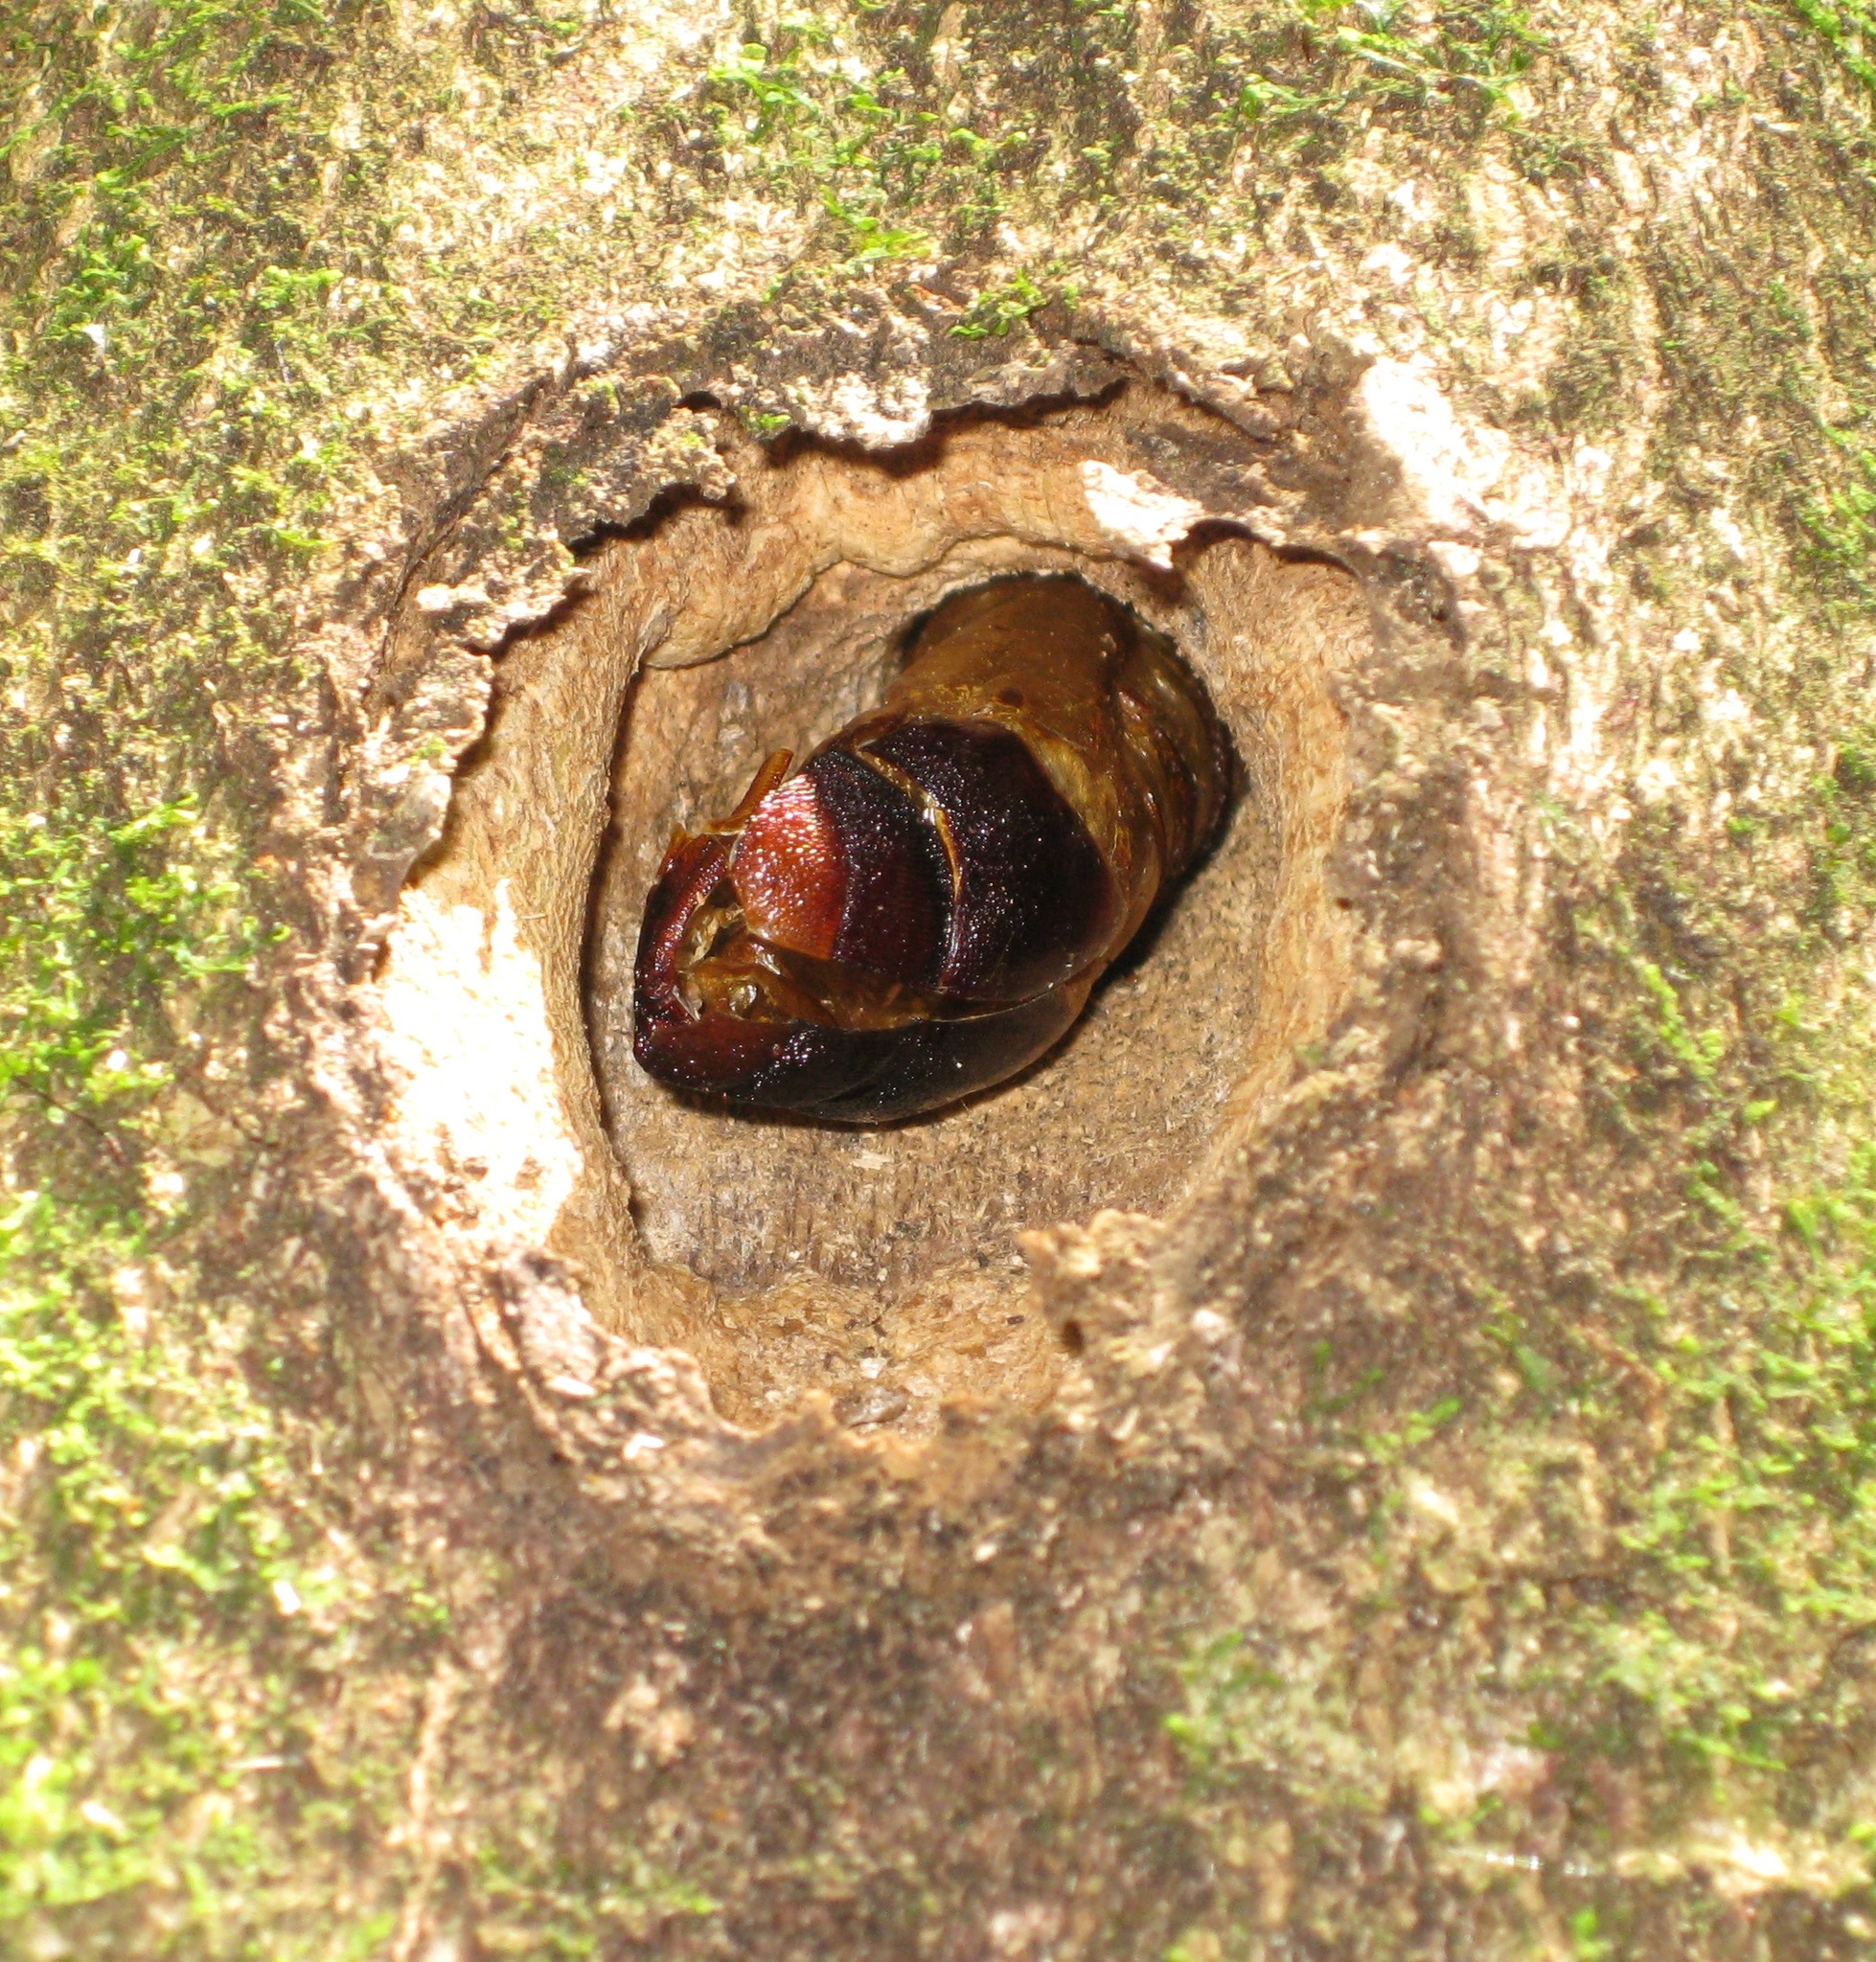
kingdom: Animalia
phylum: Arthropoda
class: Insecta
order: Lepidoptera
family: Hepialidae
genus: Aenetus
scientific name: Aenetus virescens
